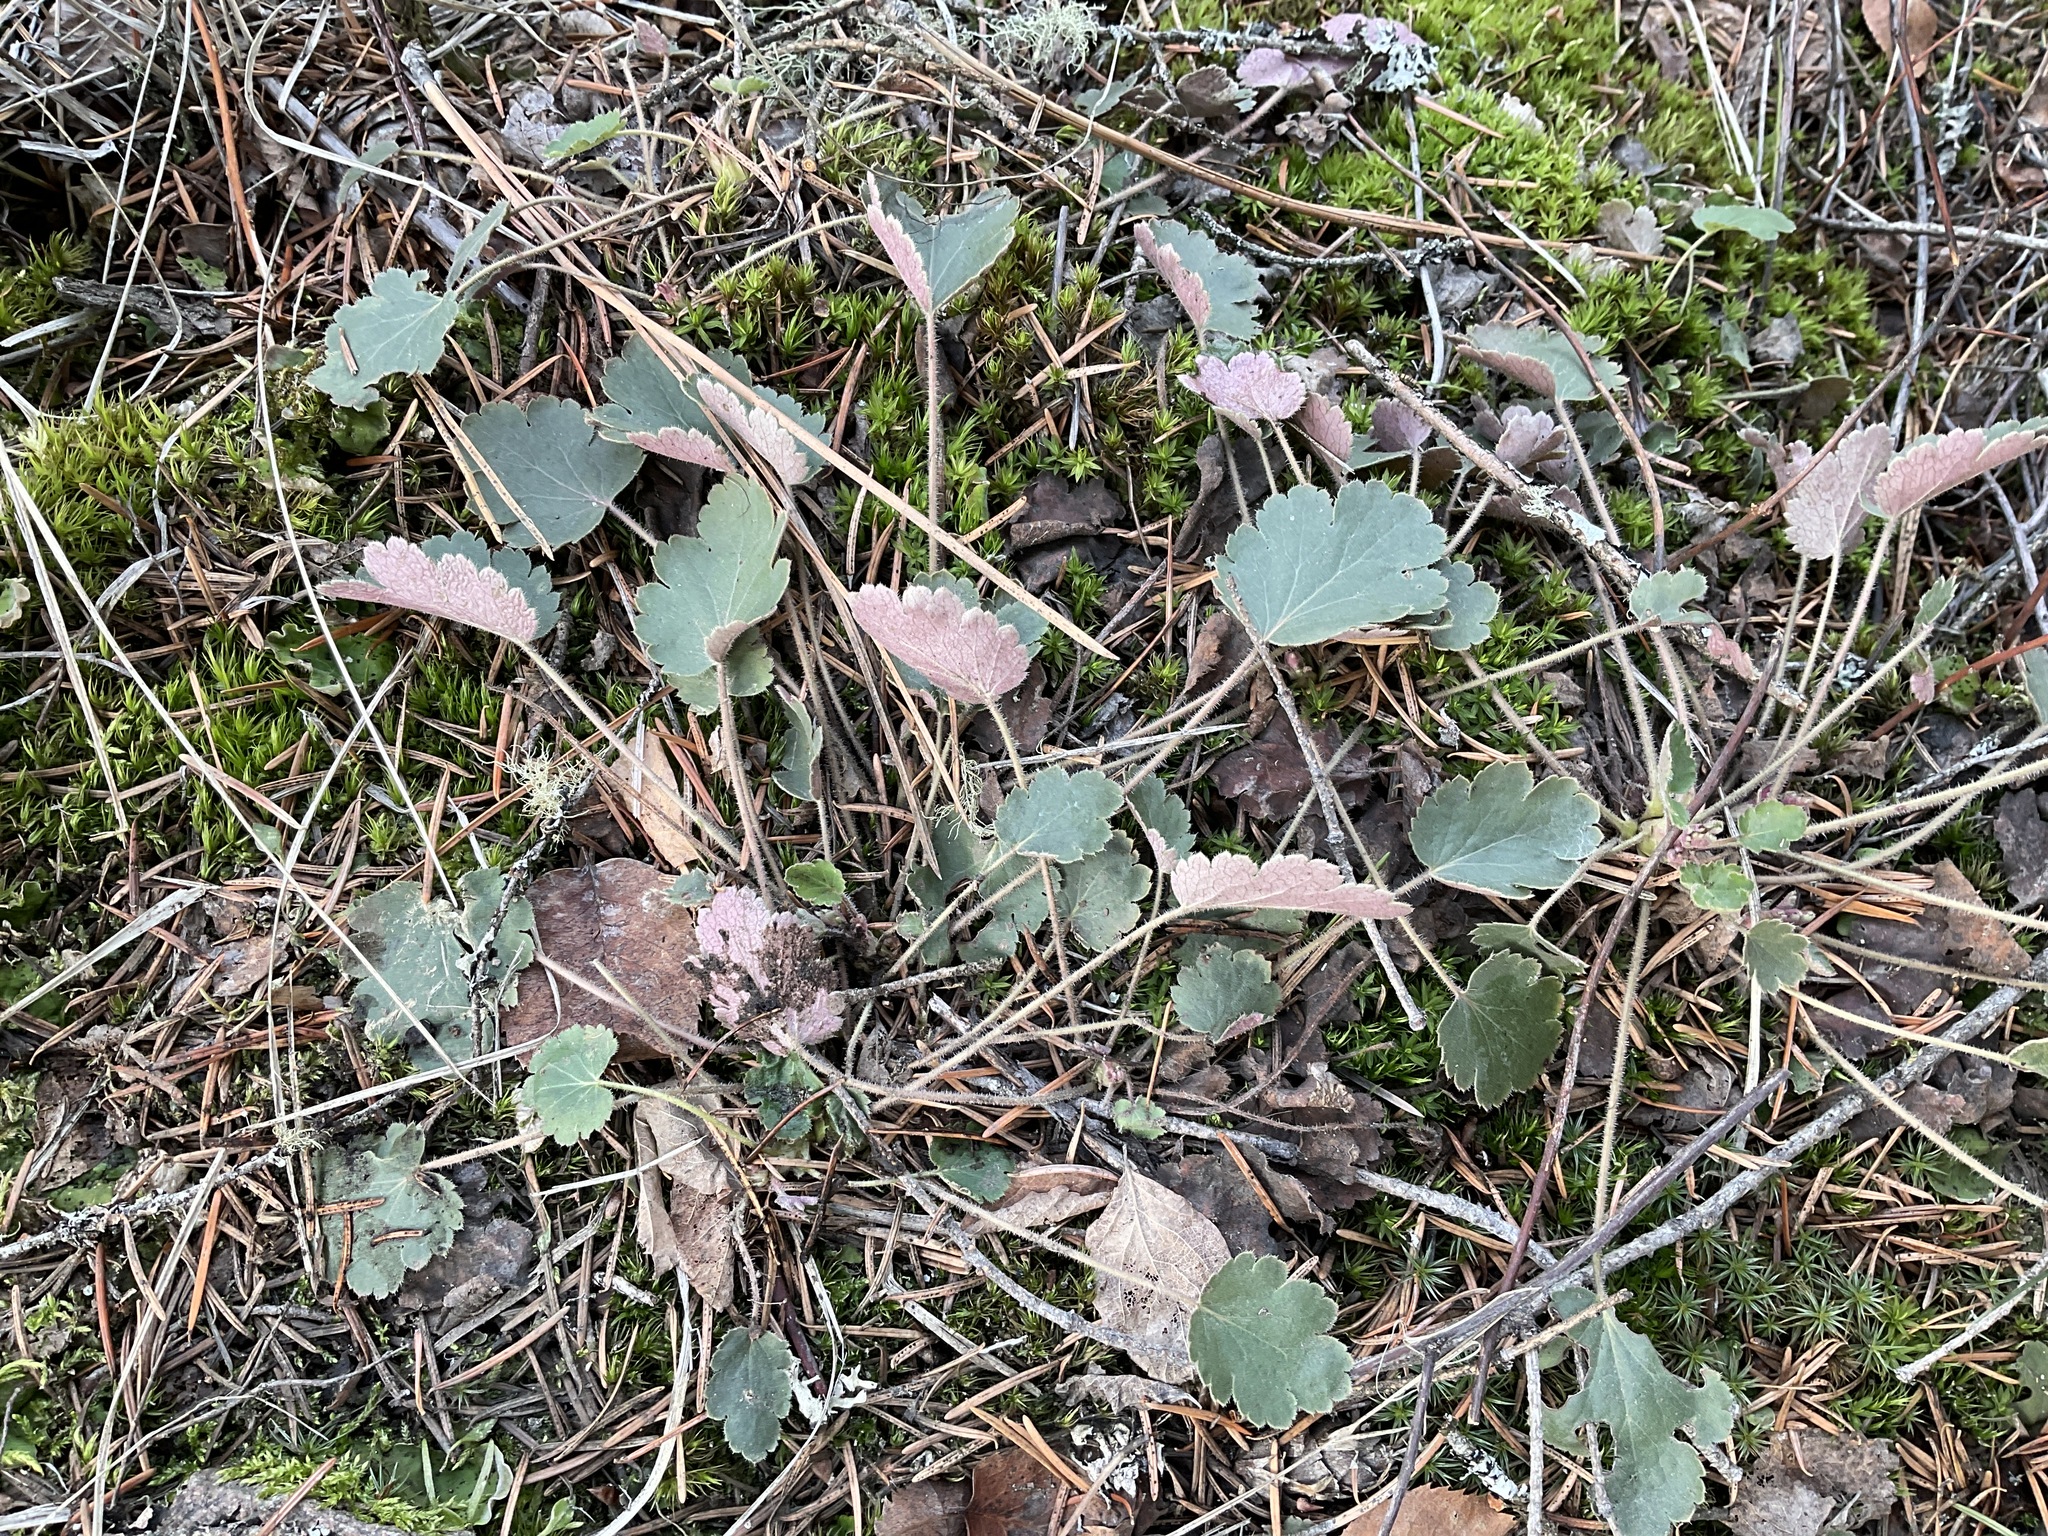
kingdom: Plantae
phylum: Tracheophyta
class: Magnoliopsida
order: Saxifragales
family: Saxifragaceae
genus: Heuchera
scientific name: Heuchera cylindrica
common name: Mat alumroot
